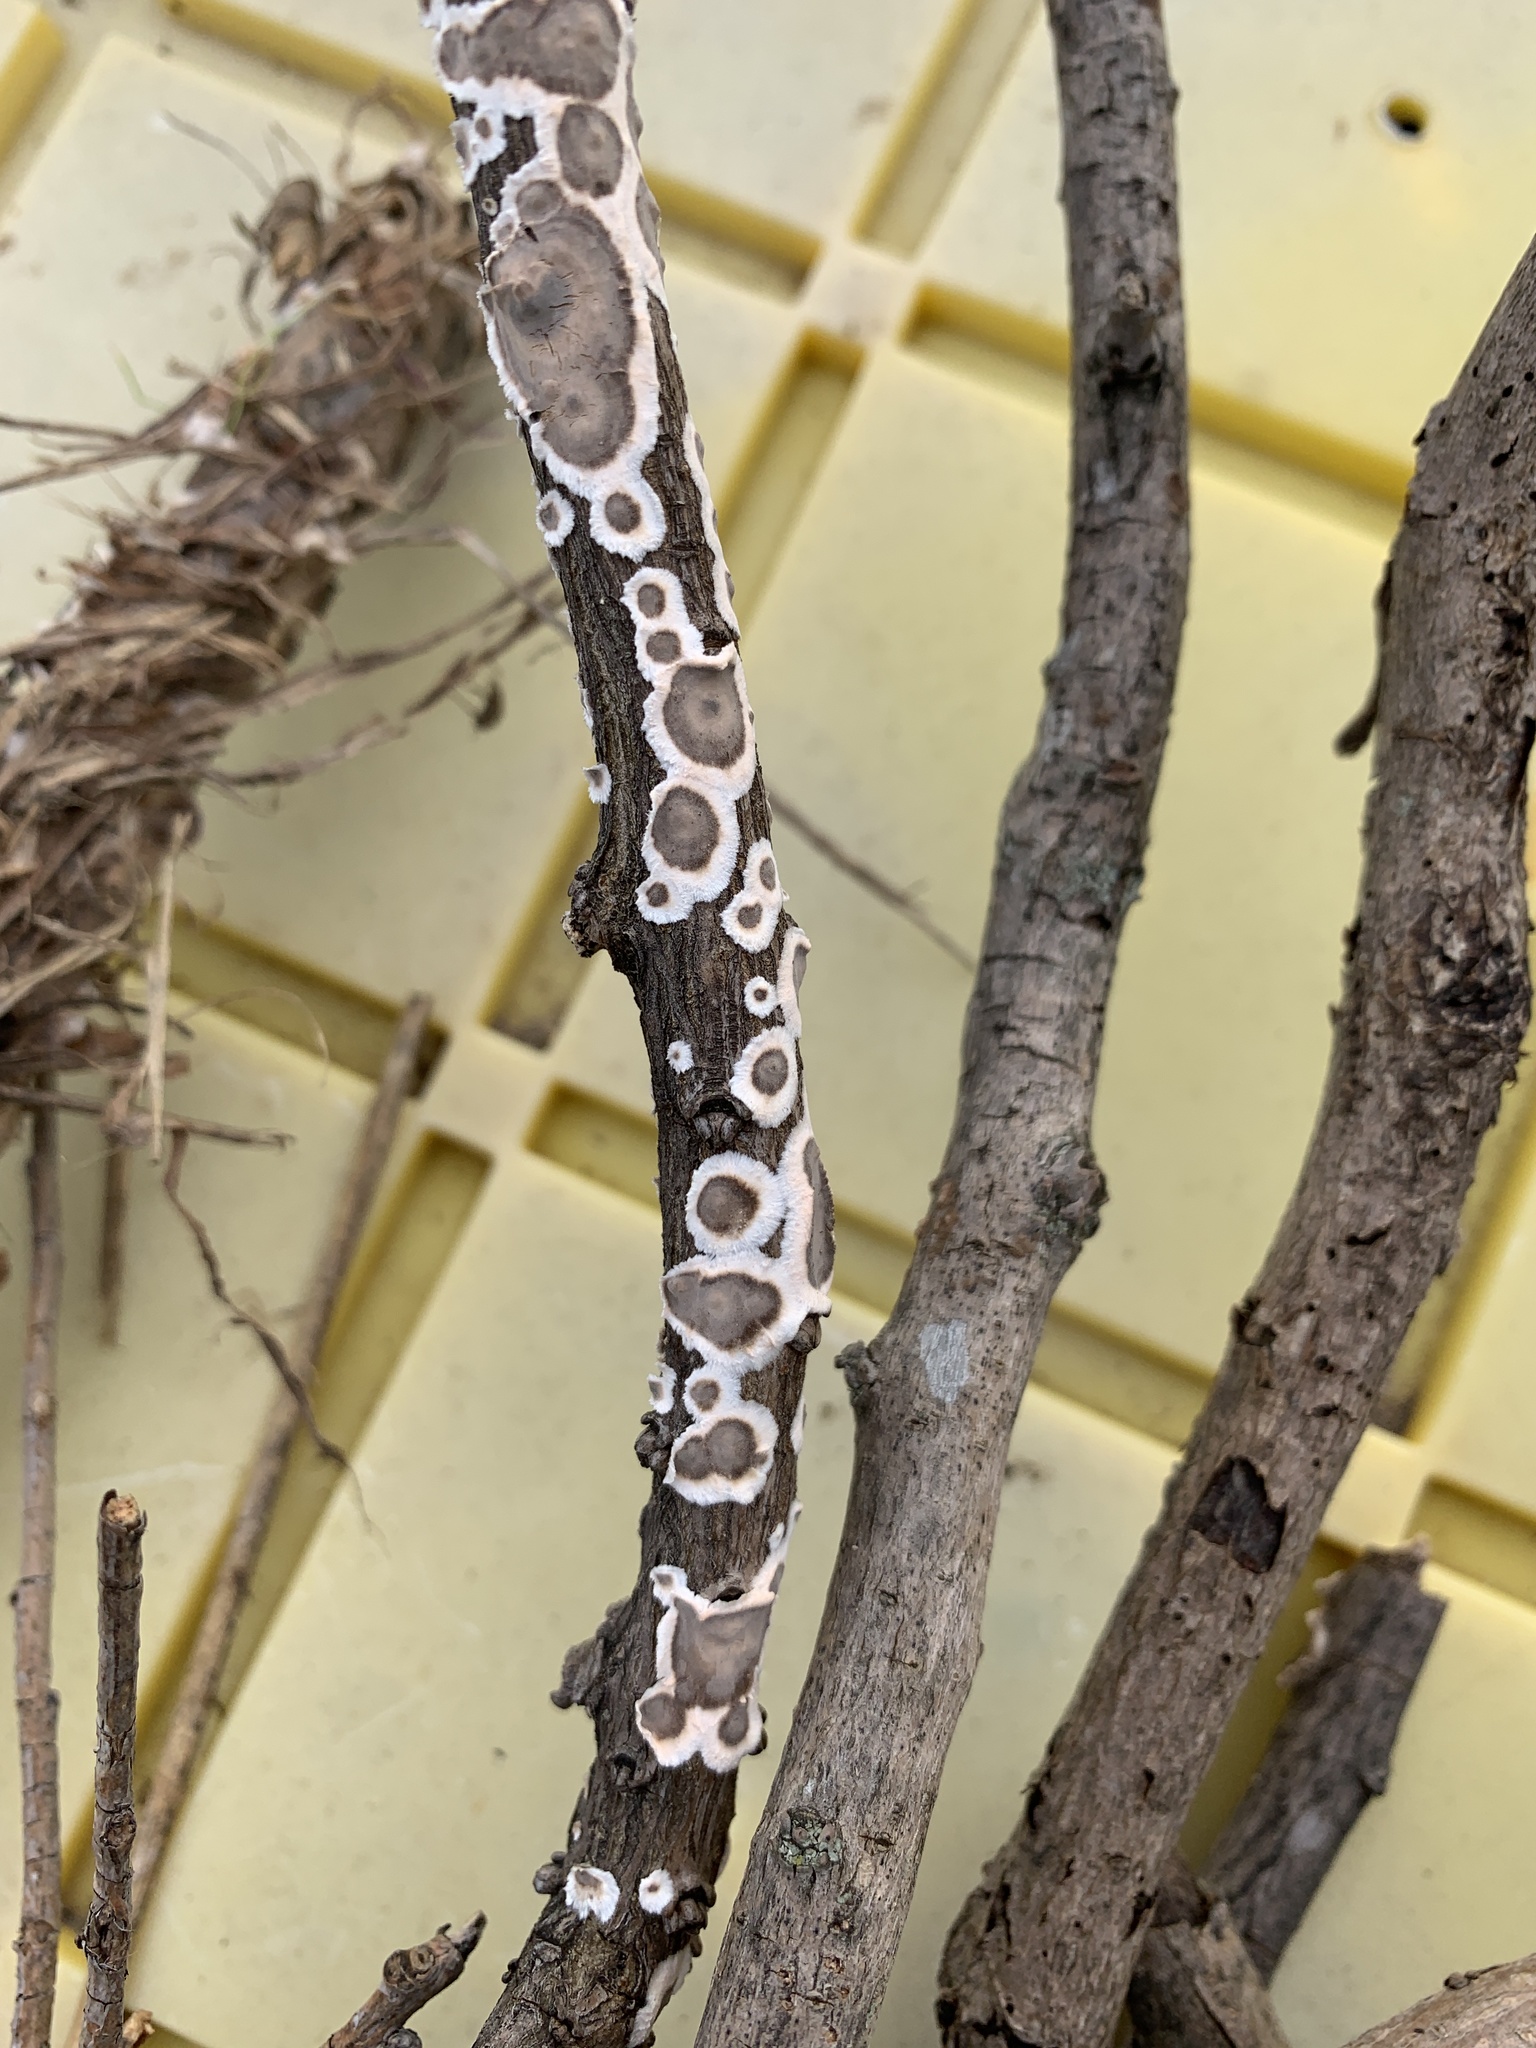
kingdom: Fungi
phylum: Basidiomycota
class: Agaricomycetes
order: Russulales
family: Peniophoraceae
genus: Peniophora
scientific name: Peniophora albobadia
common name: Giraffe spots
